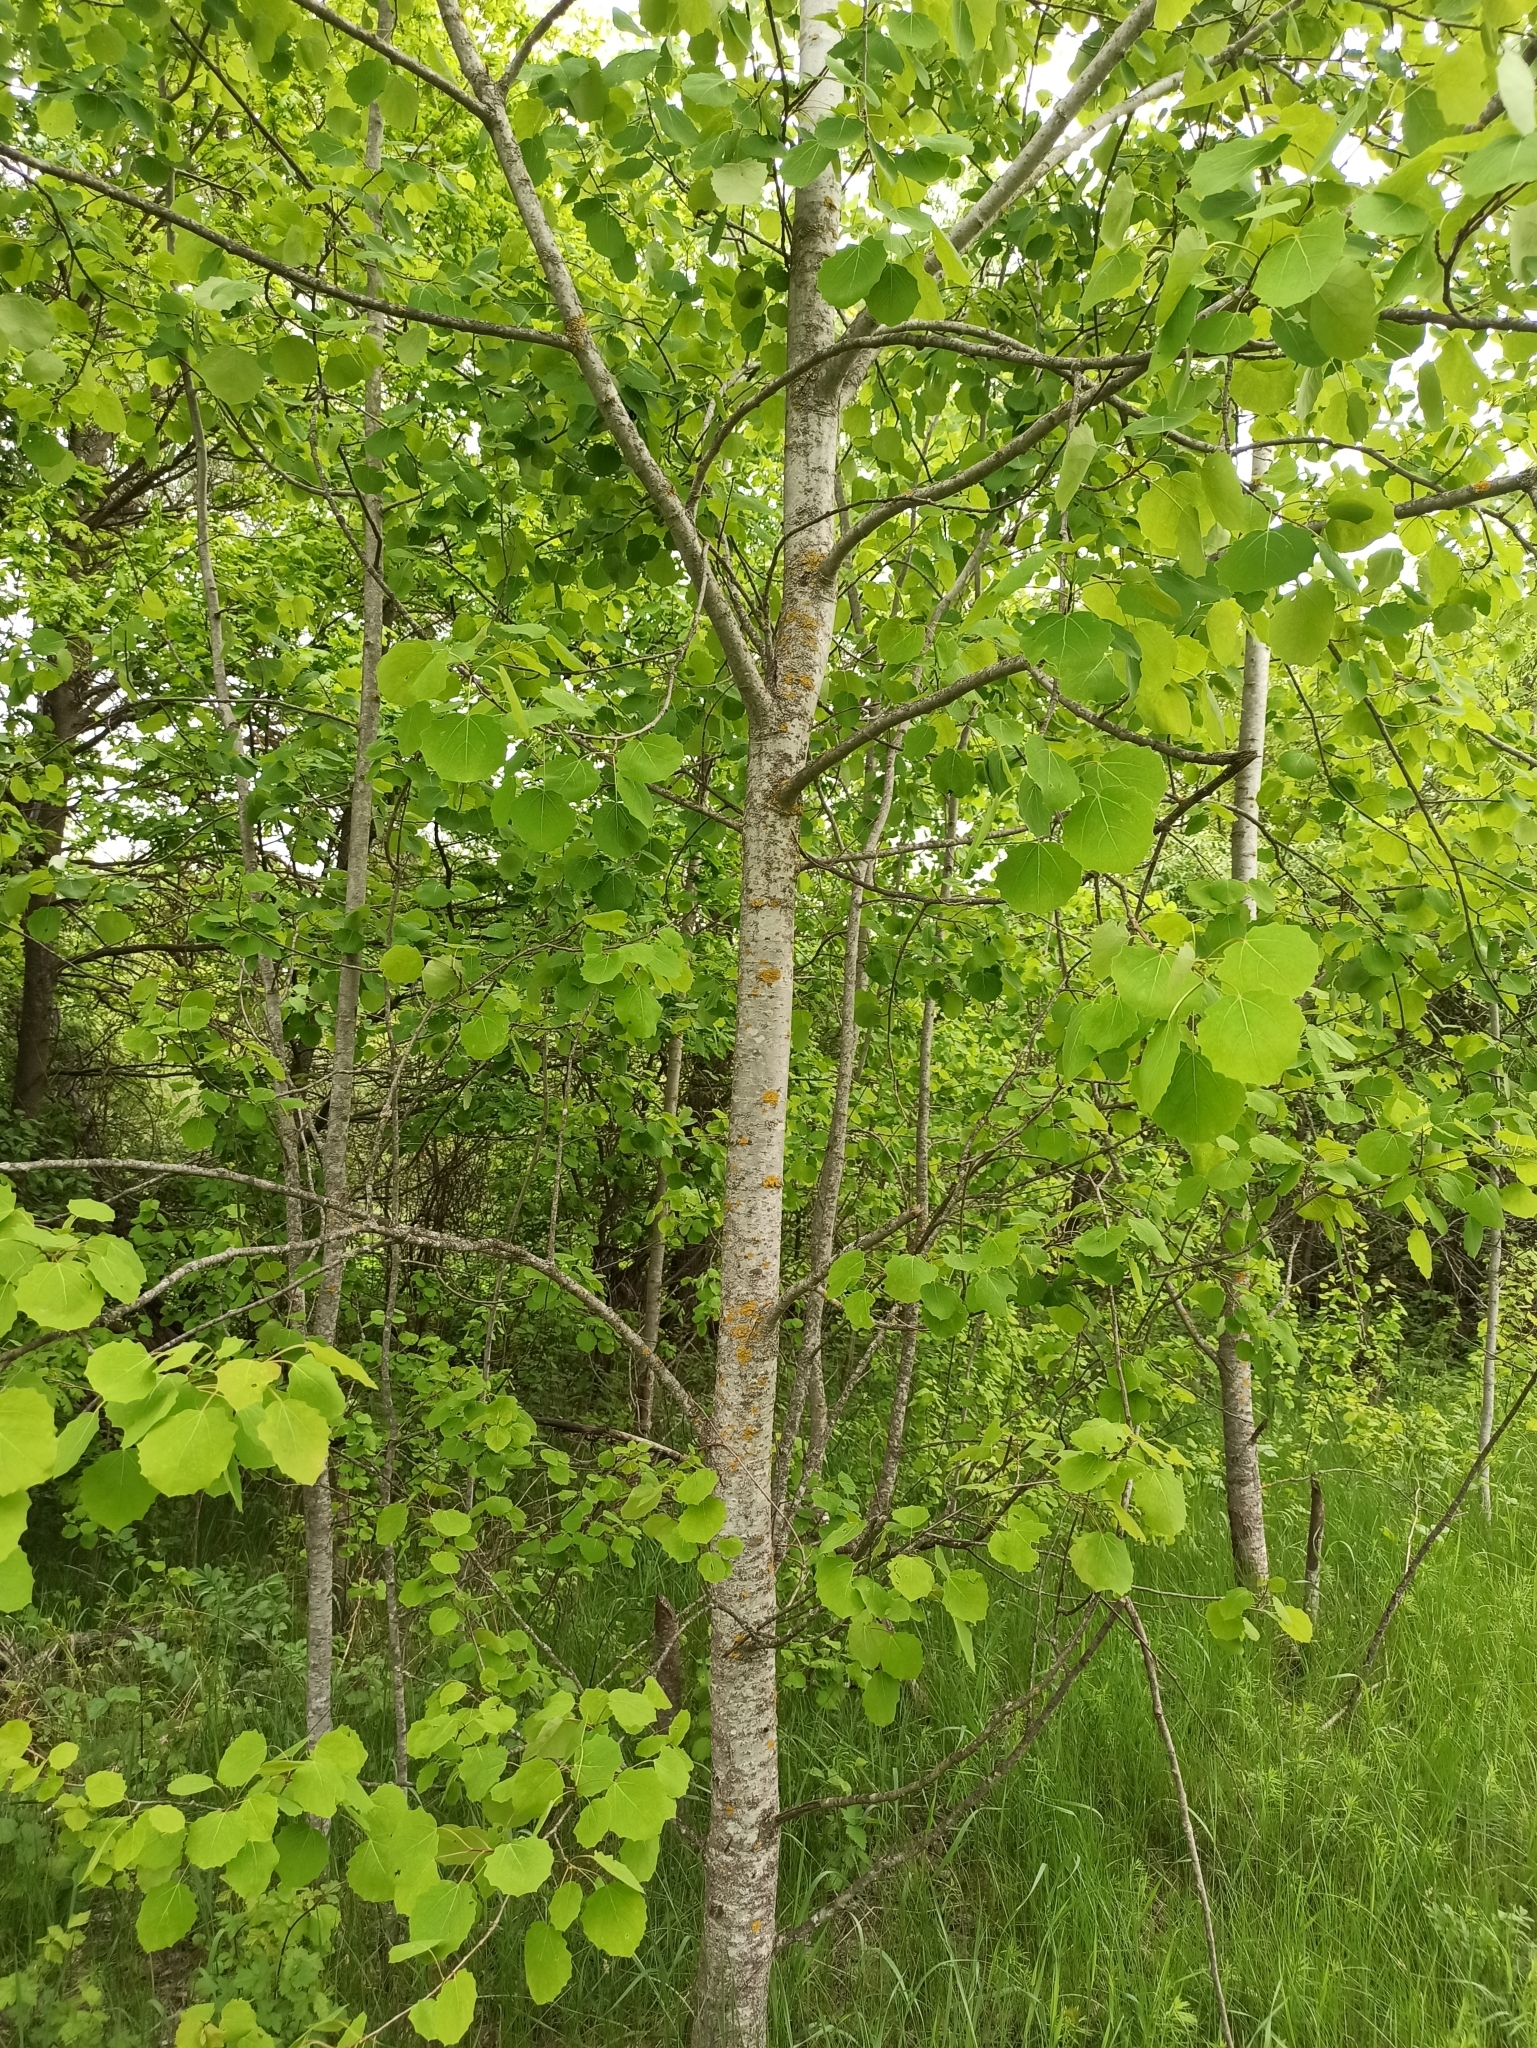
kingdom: Plantae
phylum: Tracheophyta
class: Magnoliopsida
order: Malpighiales
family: Salicaceae
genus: Populus
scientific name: Populus tremula
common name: European aspen
